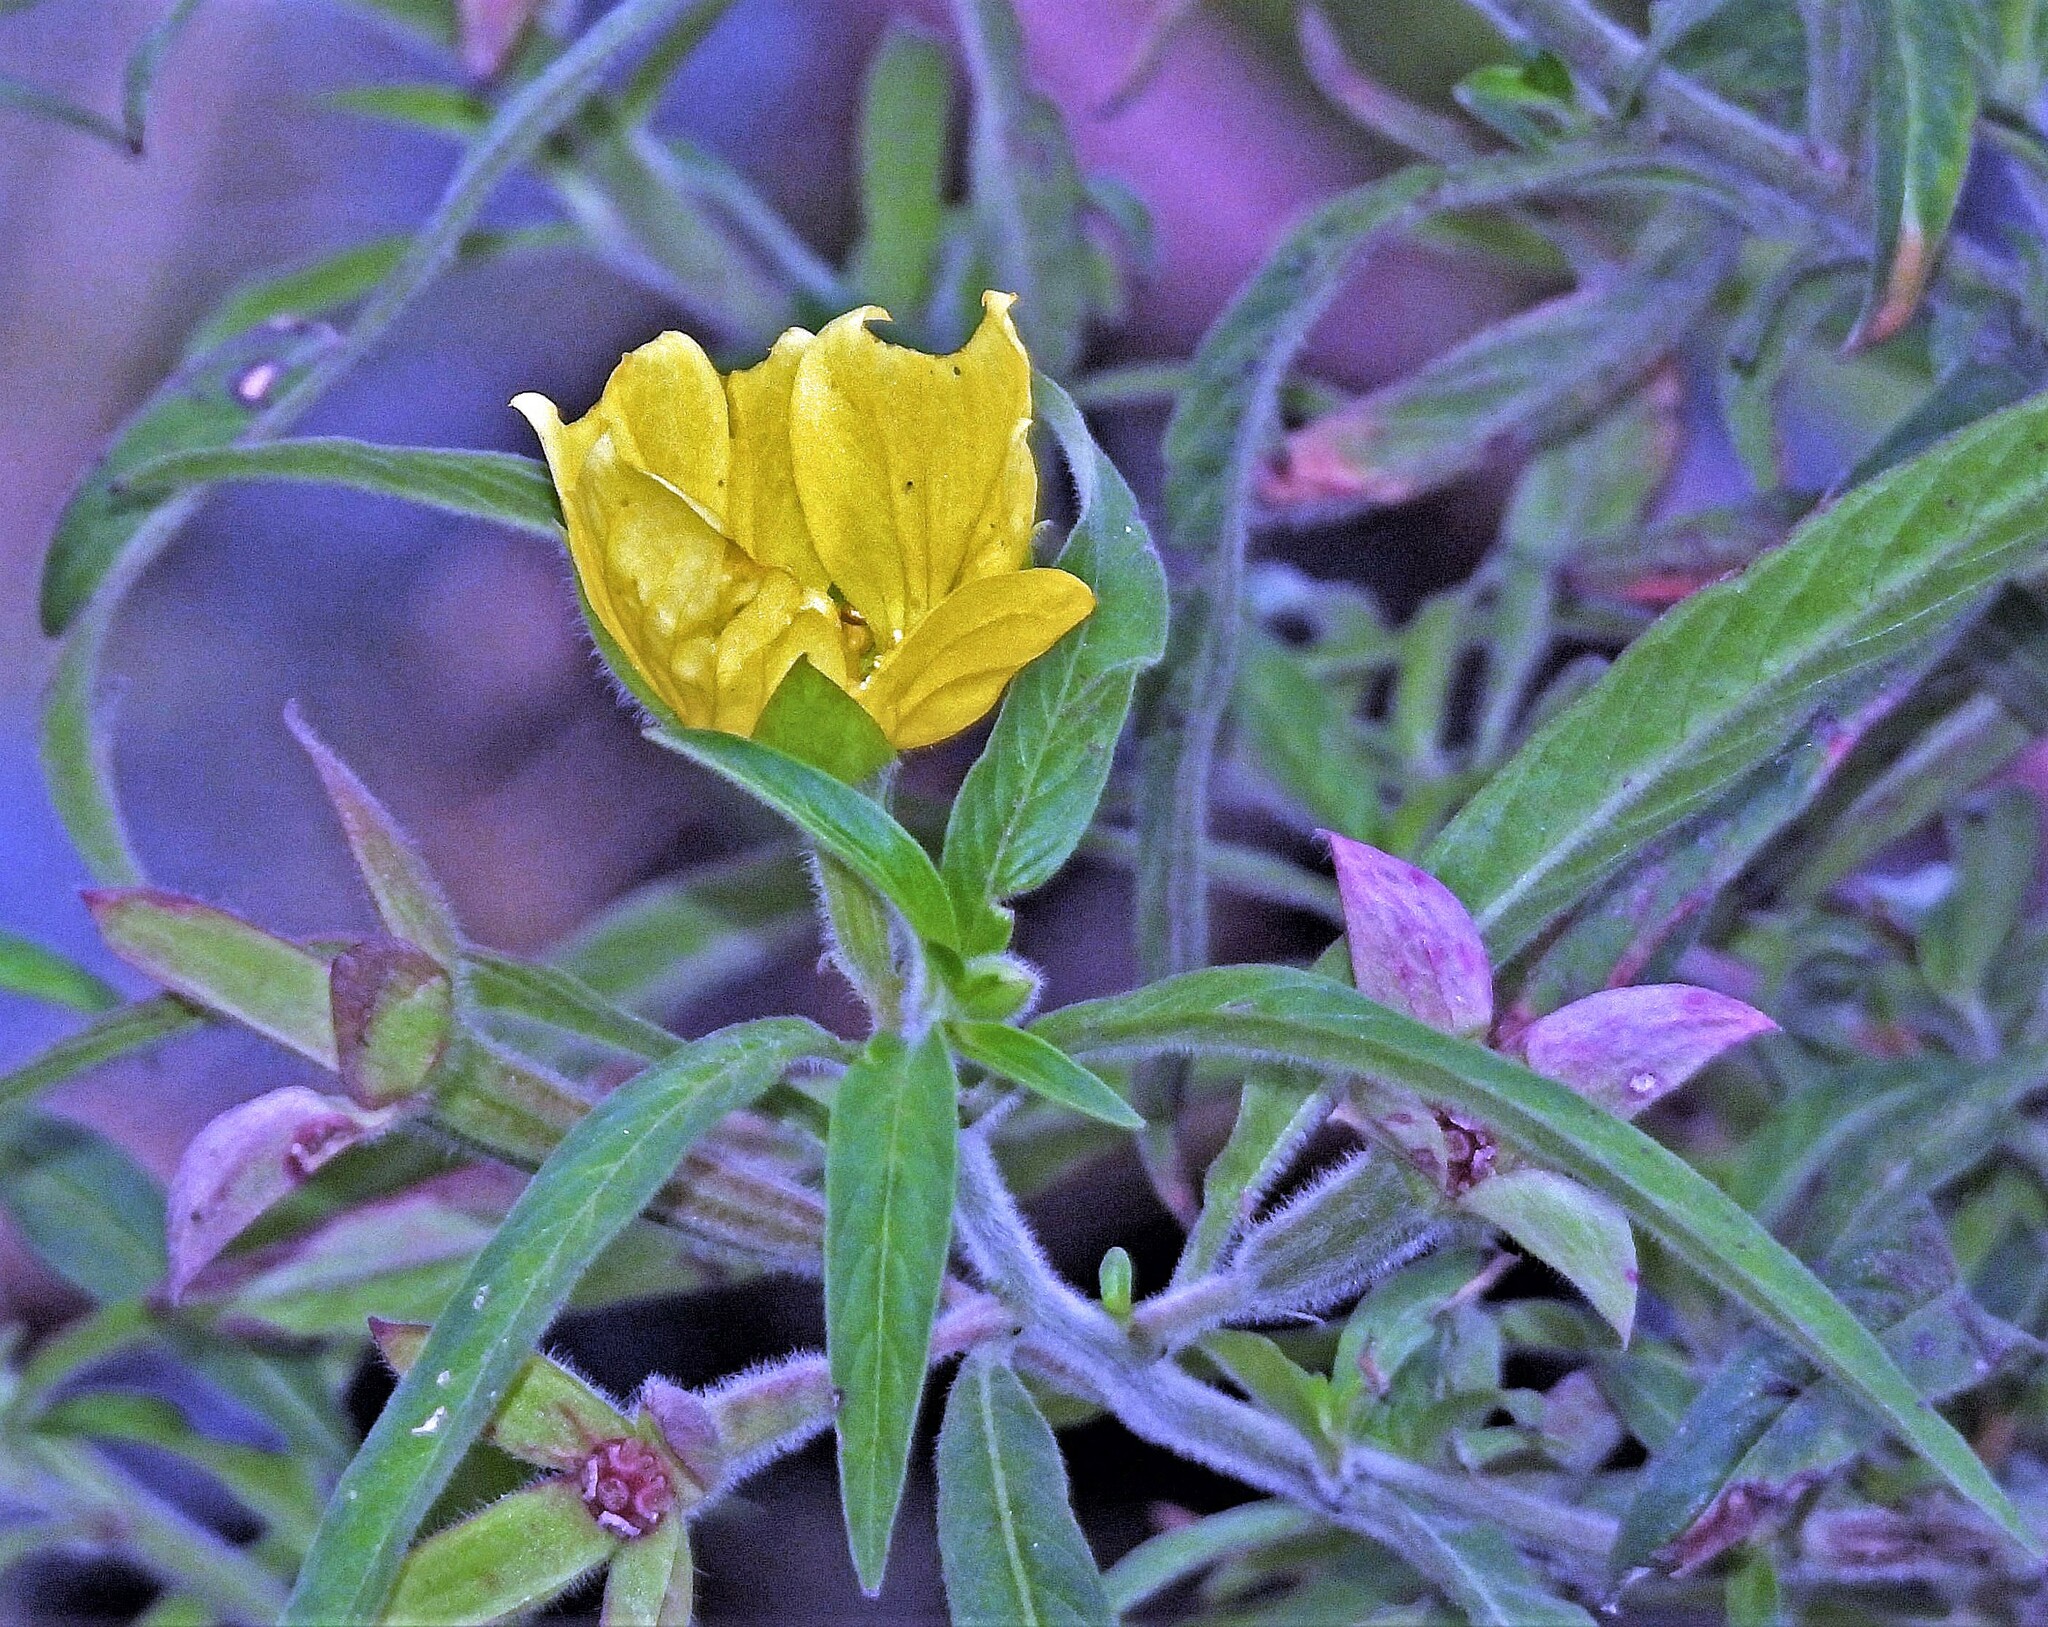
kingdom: Plantae
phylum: Tracheophyta
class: Magnoliopsida
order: Myrtales
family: Onagraceae
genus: Ludwigia
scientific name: Ludwigia bonariensis
